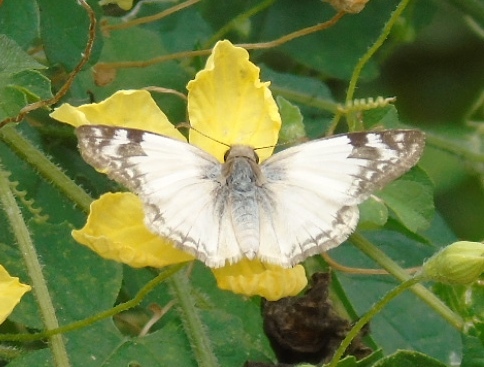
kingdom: Animalia
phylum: Arthropoda
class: Insecta
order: Lepidoptera
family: Hesperiidae
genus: Heliopetes
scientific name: Heliopetes laviana
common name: Laviana white-skipper
